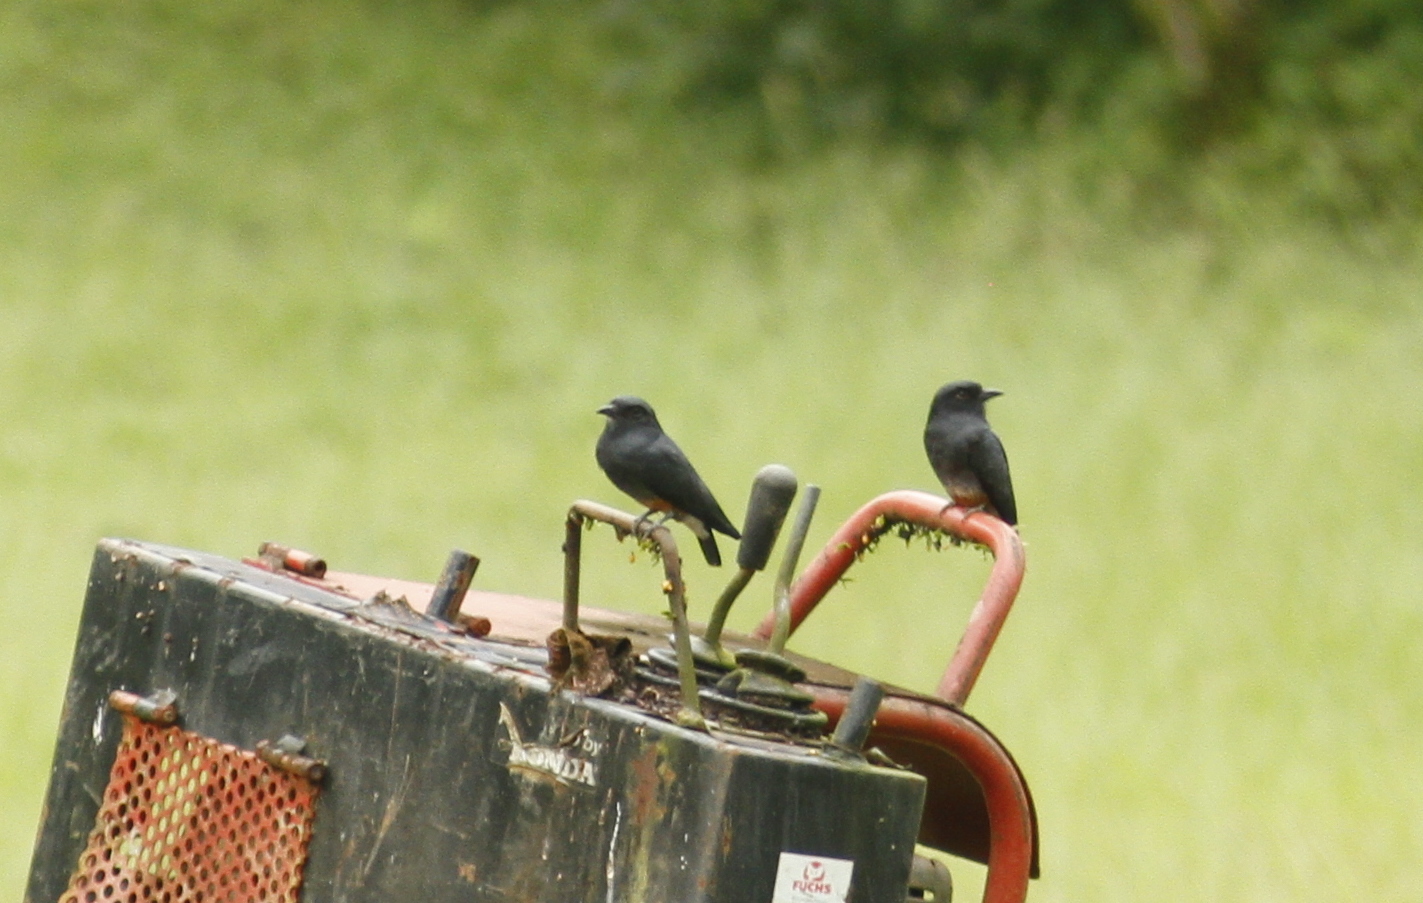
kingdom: Animalia
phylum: Chordata
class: Aves
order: Piciformes
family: Bucconidae
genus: Chelidoptera
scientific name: Chelidoptera tenebrosa
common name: Swallow-winged puffbird
